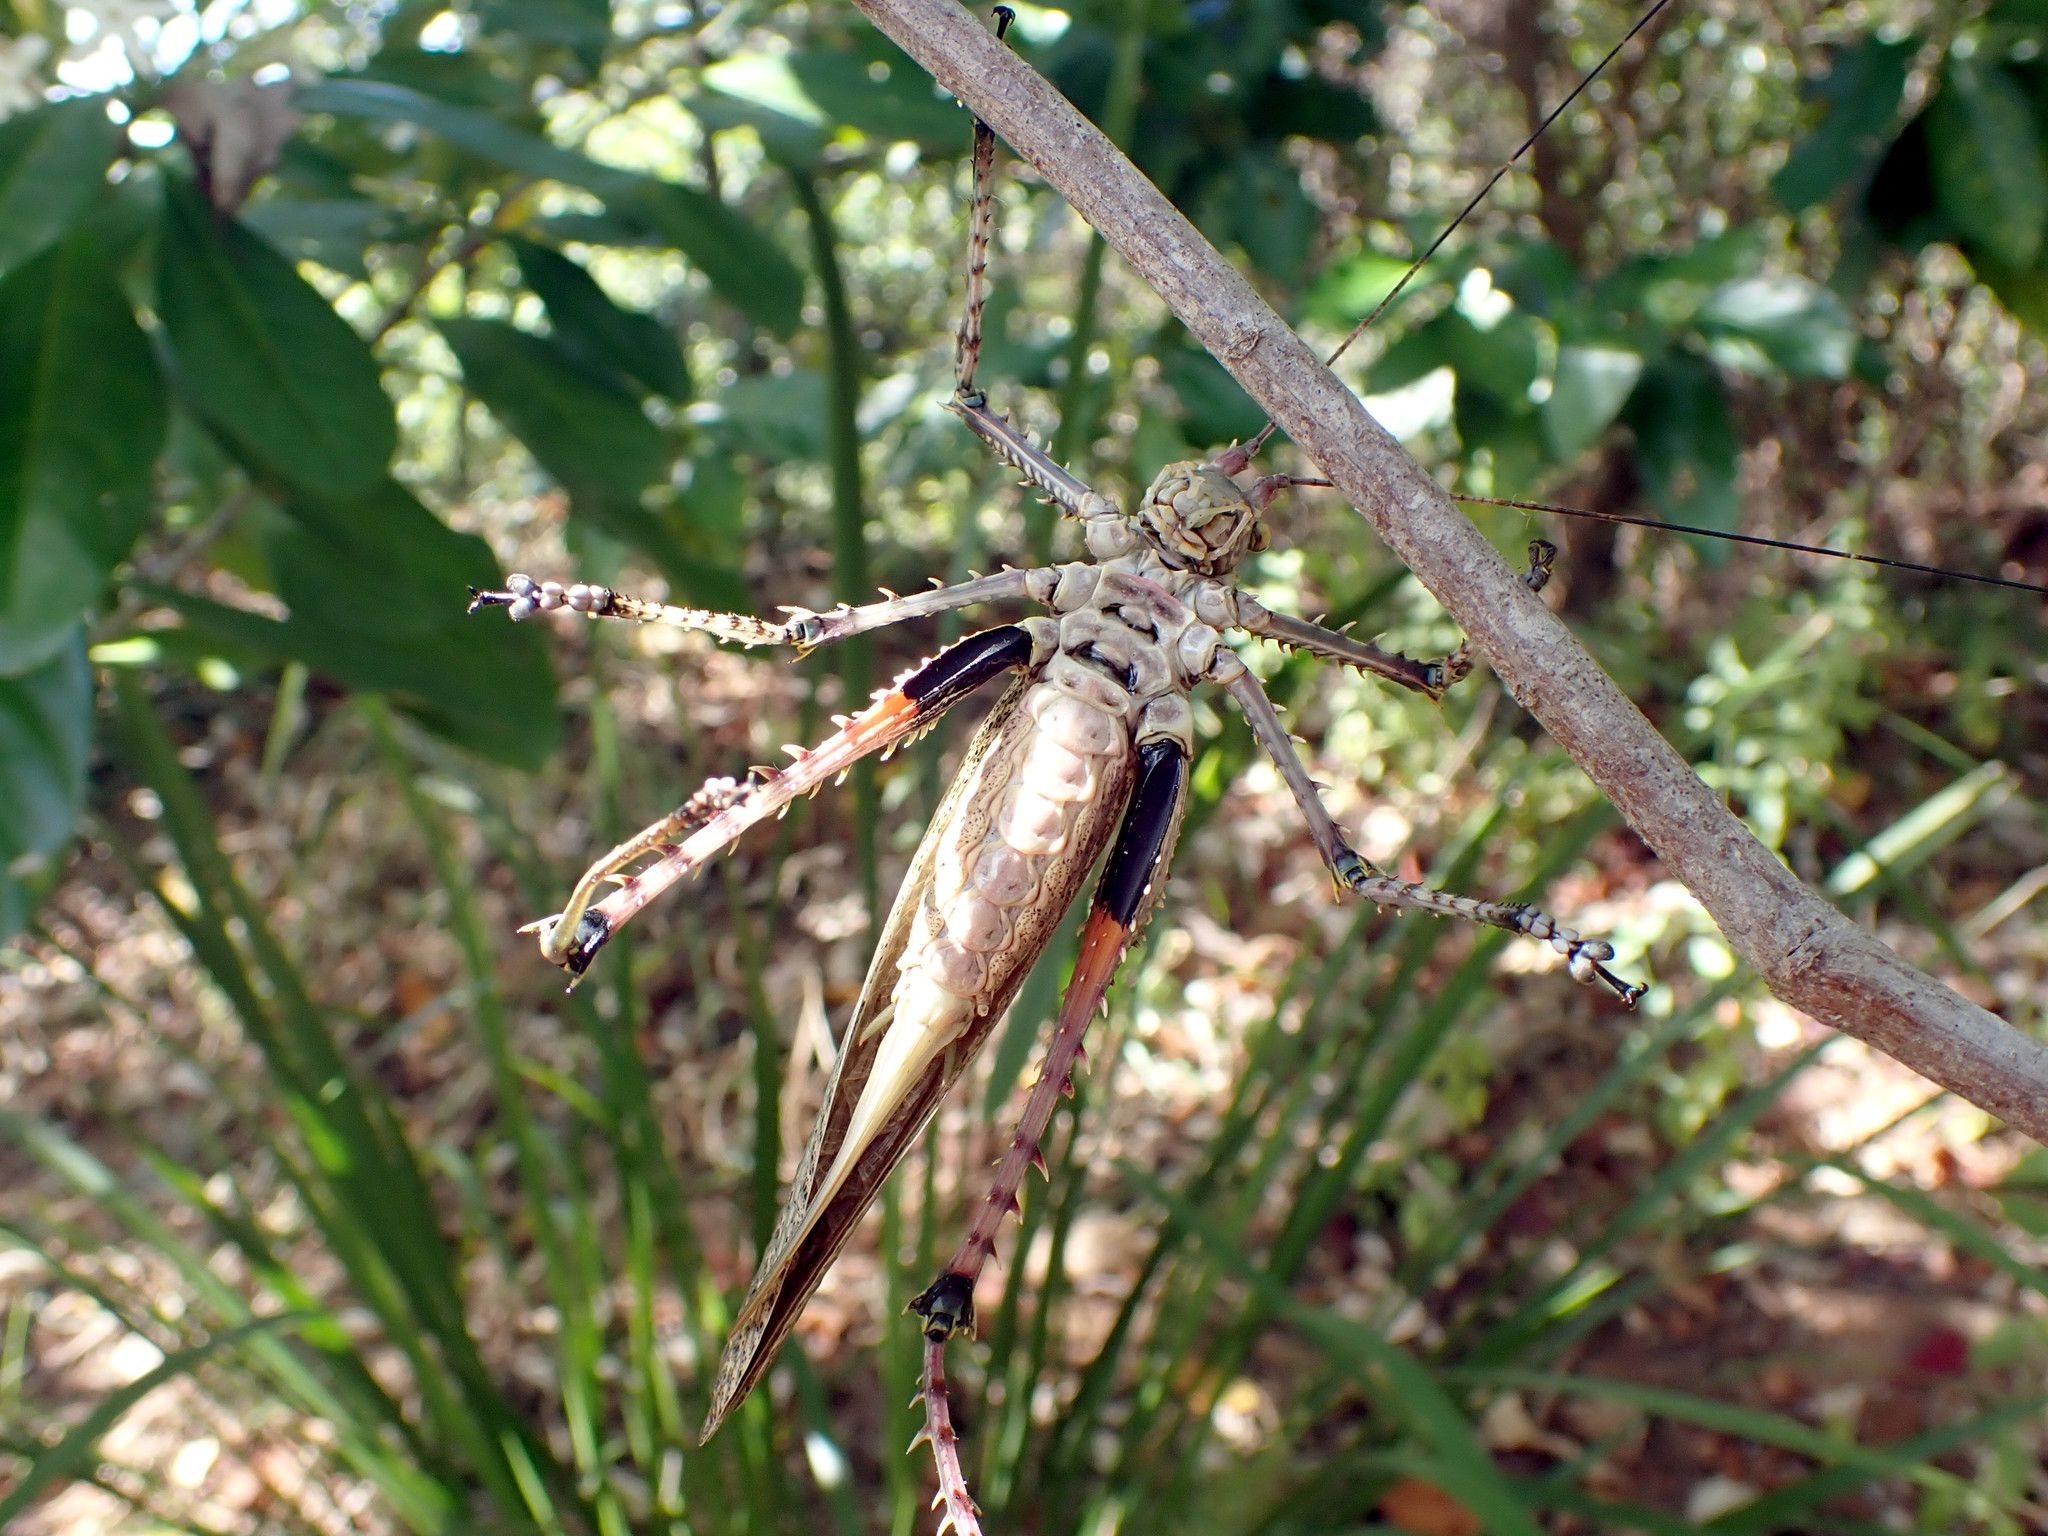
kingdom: Animalia
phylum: Arthropoda
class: Insecta
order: Orthoptera
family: Tettigoniidae
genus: Phricta
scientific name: Phricta spinosa
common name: Giant spiny forest katydid
